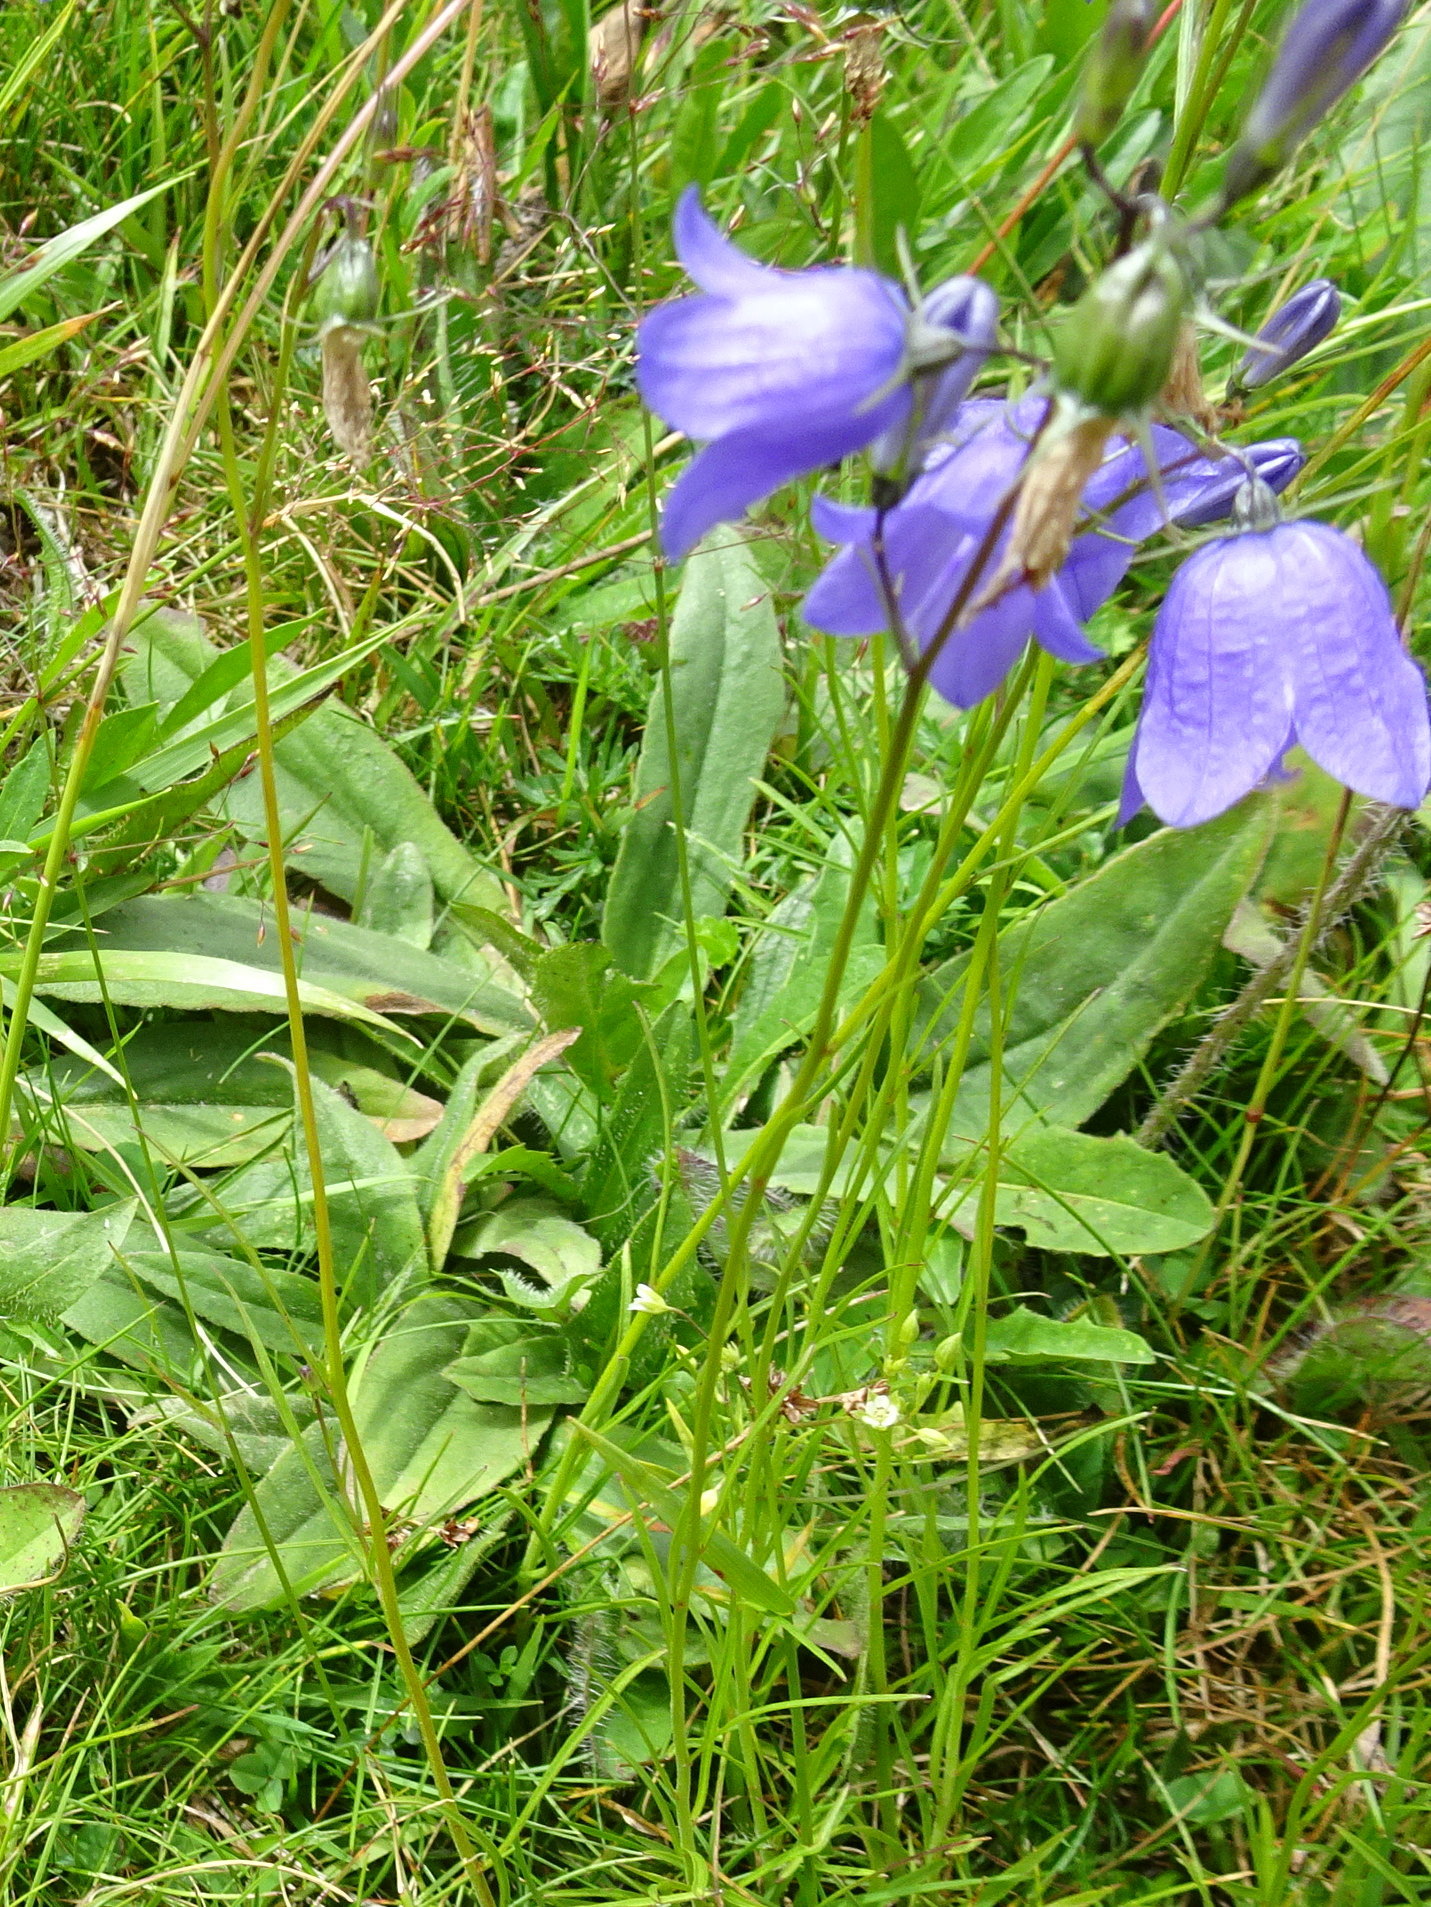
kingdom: Plantae
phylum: Tracheophyta
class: Magnoliopsida
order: Asterales
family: Campanulaceae
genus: Campanula
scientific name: Campanula rotundifolia
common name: Harebell
